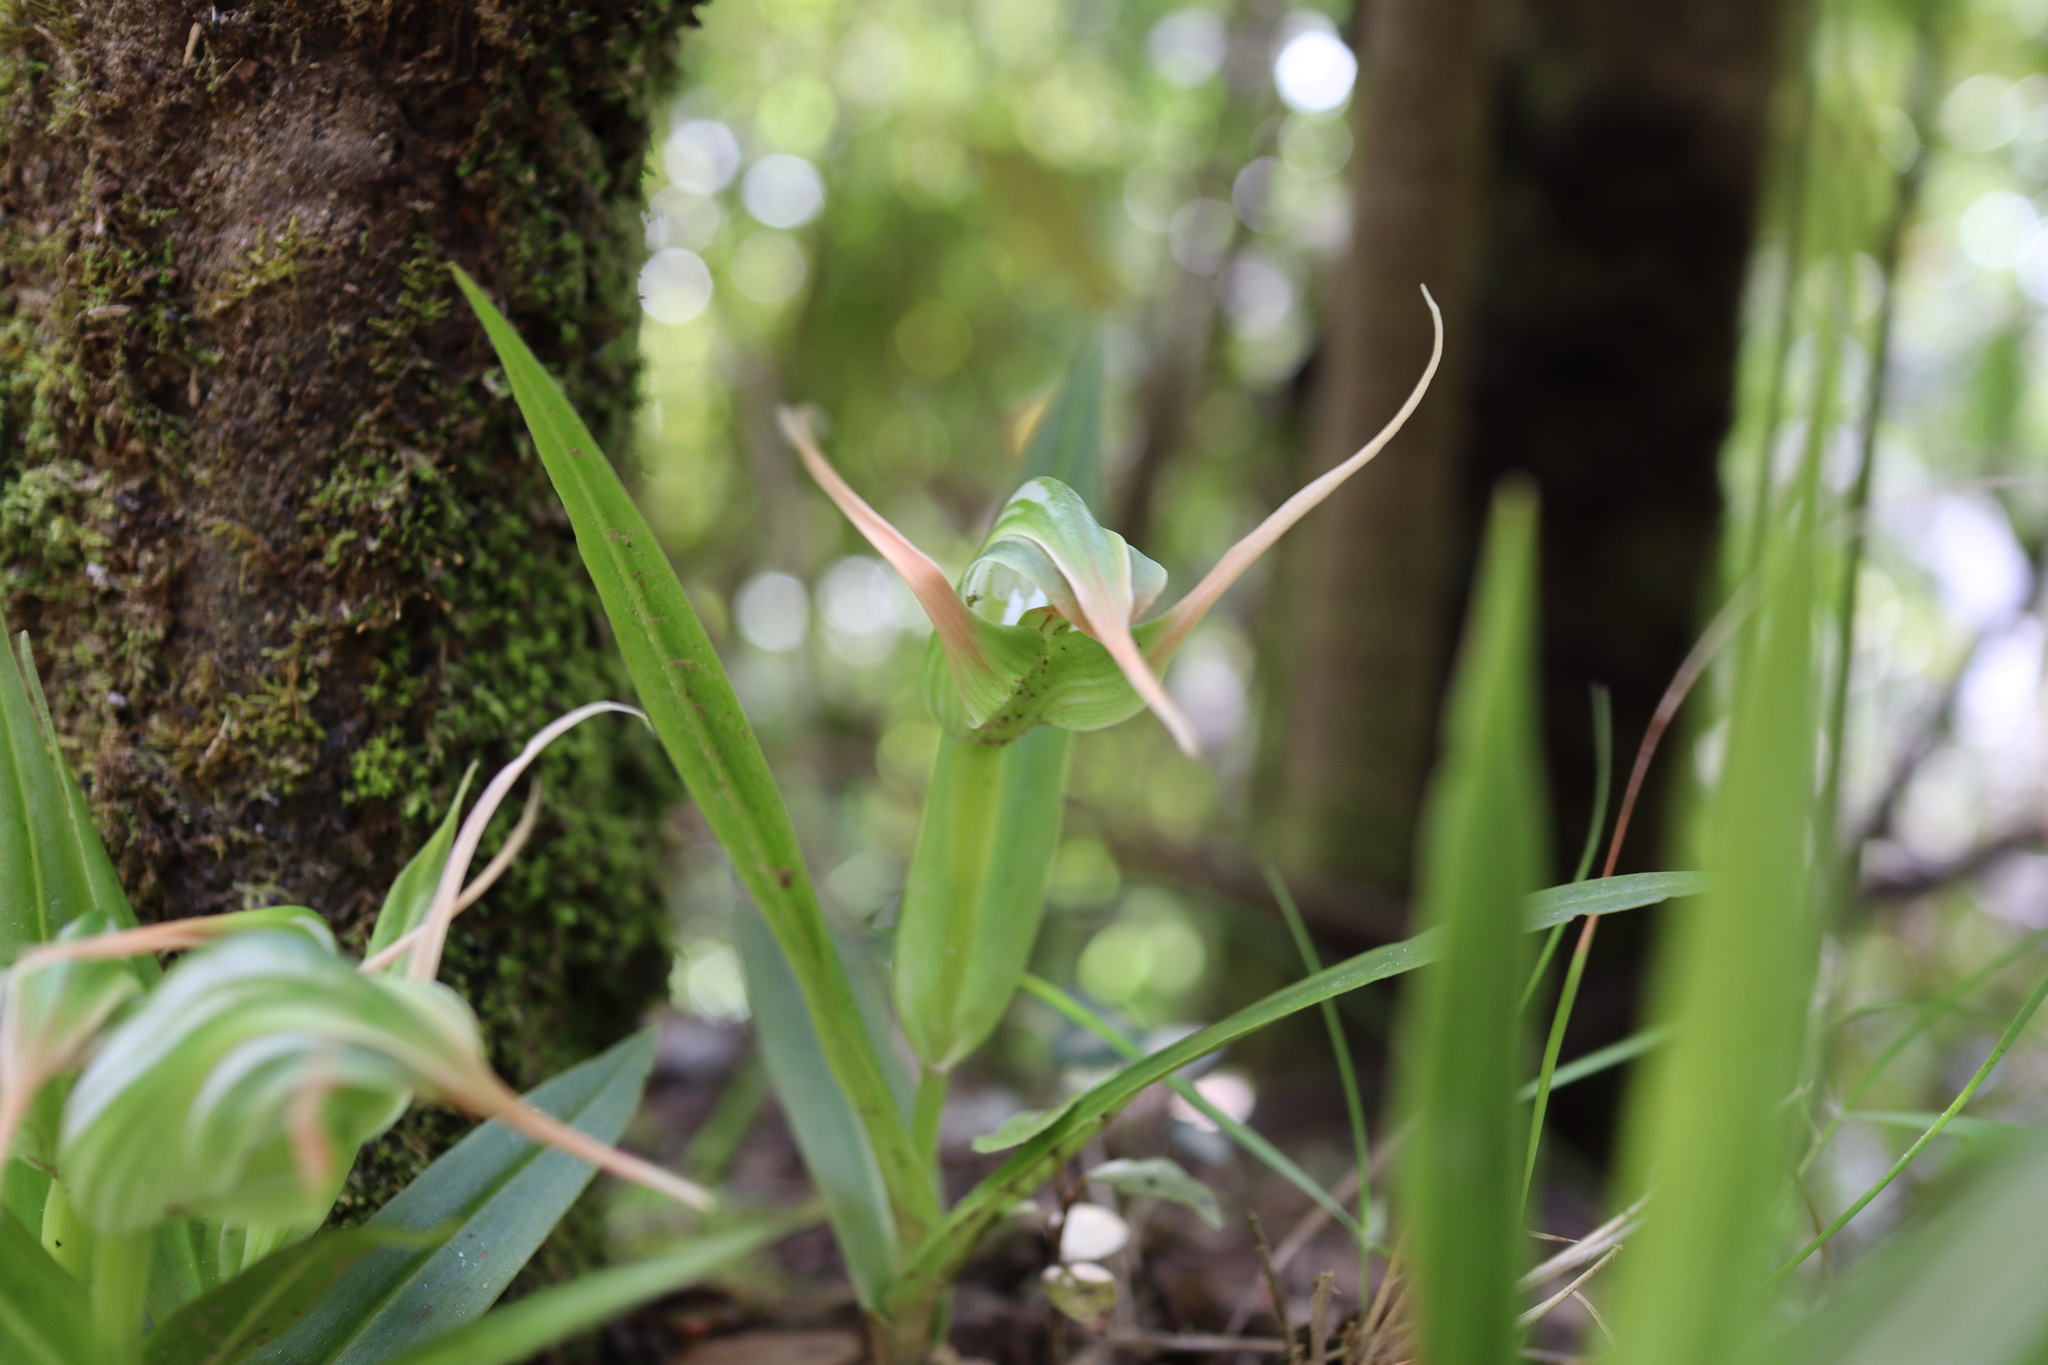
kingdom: Plantae
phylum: Tracheophyta
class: Liliopsida
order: Asparagales
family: Orchidaceae
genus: Pterostylis
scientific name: Pterostylis banksii
